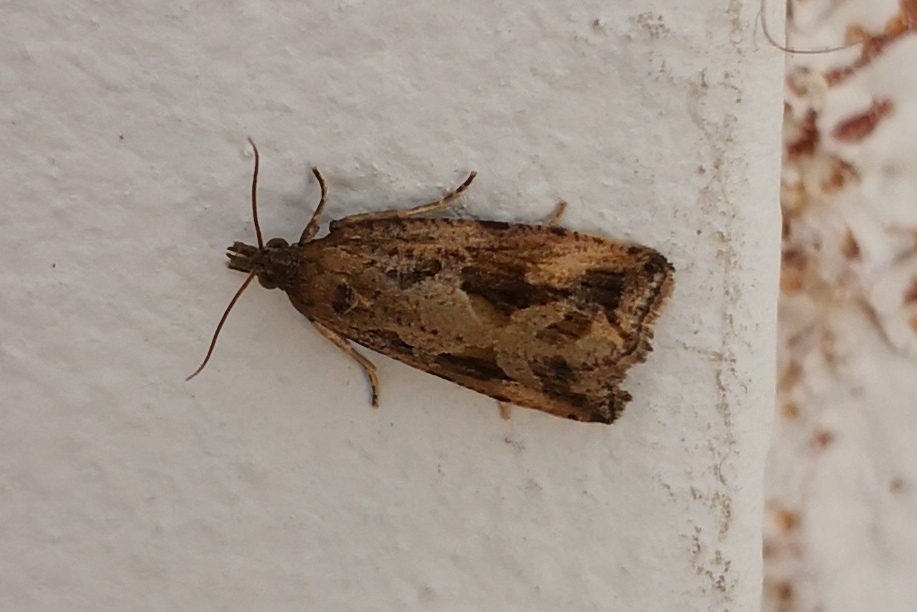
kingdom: Animalia
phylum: Arthropoda
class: Insecta
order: Lepidoptera
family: Tortricidae
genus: Endothenia
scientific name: Endothenia quadrimaculana
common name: Tortricid moth
